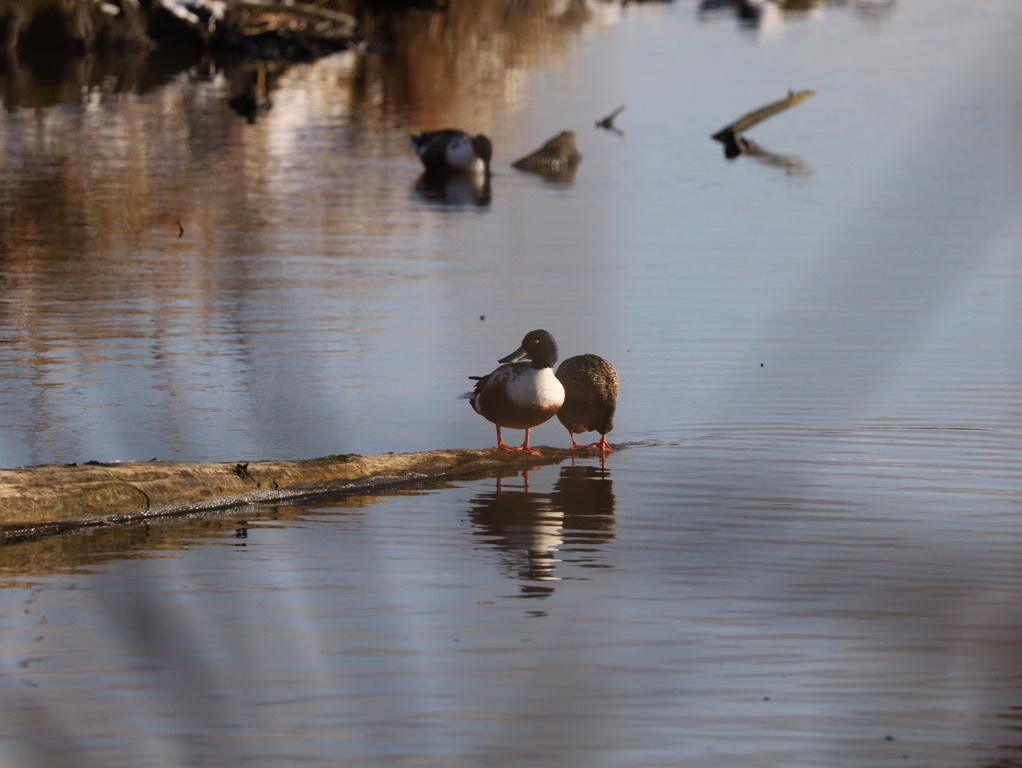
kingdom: Animalia
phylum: Chordata
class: Aves
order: Anseriformes
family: Anatidae
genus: Spatula
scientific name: Spatula clypeata
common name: Northern shoveler
